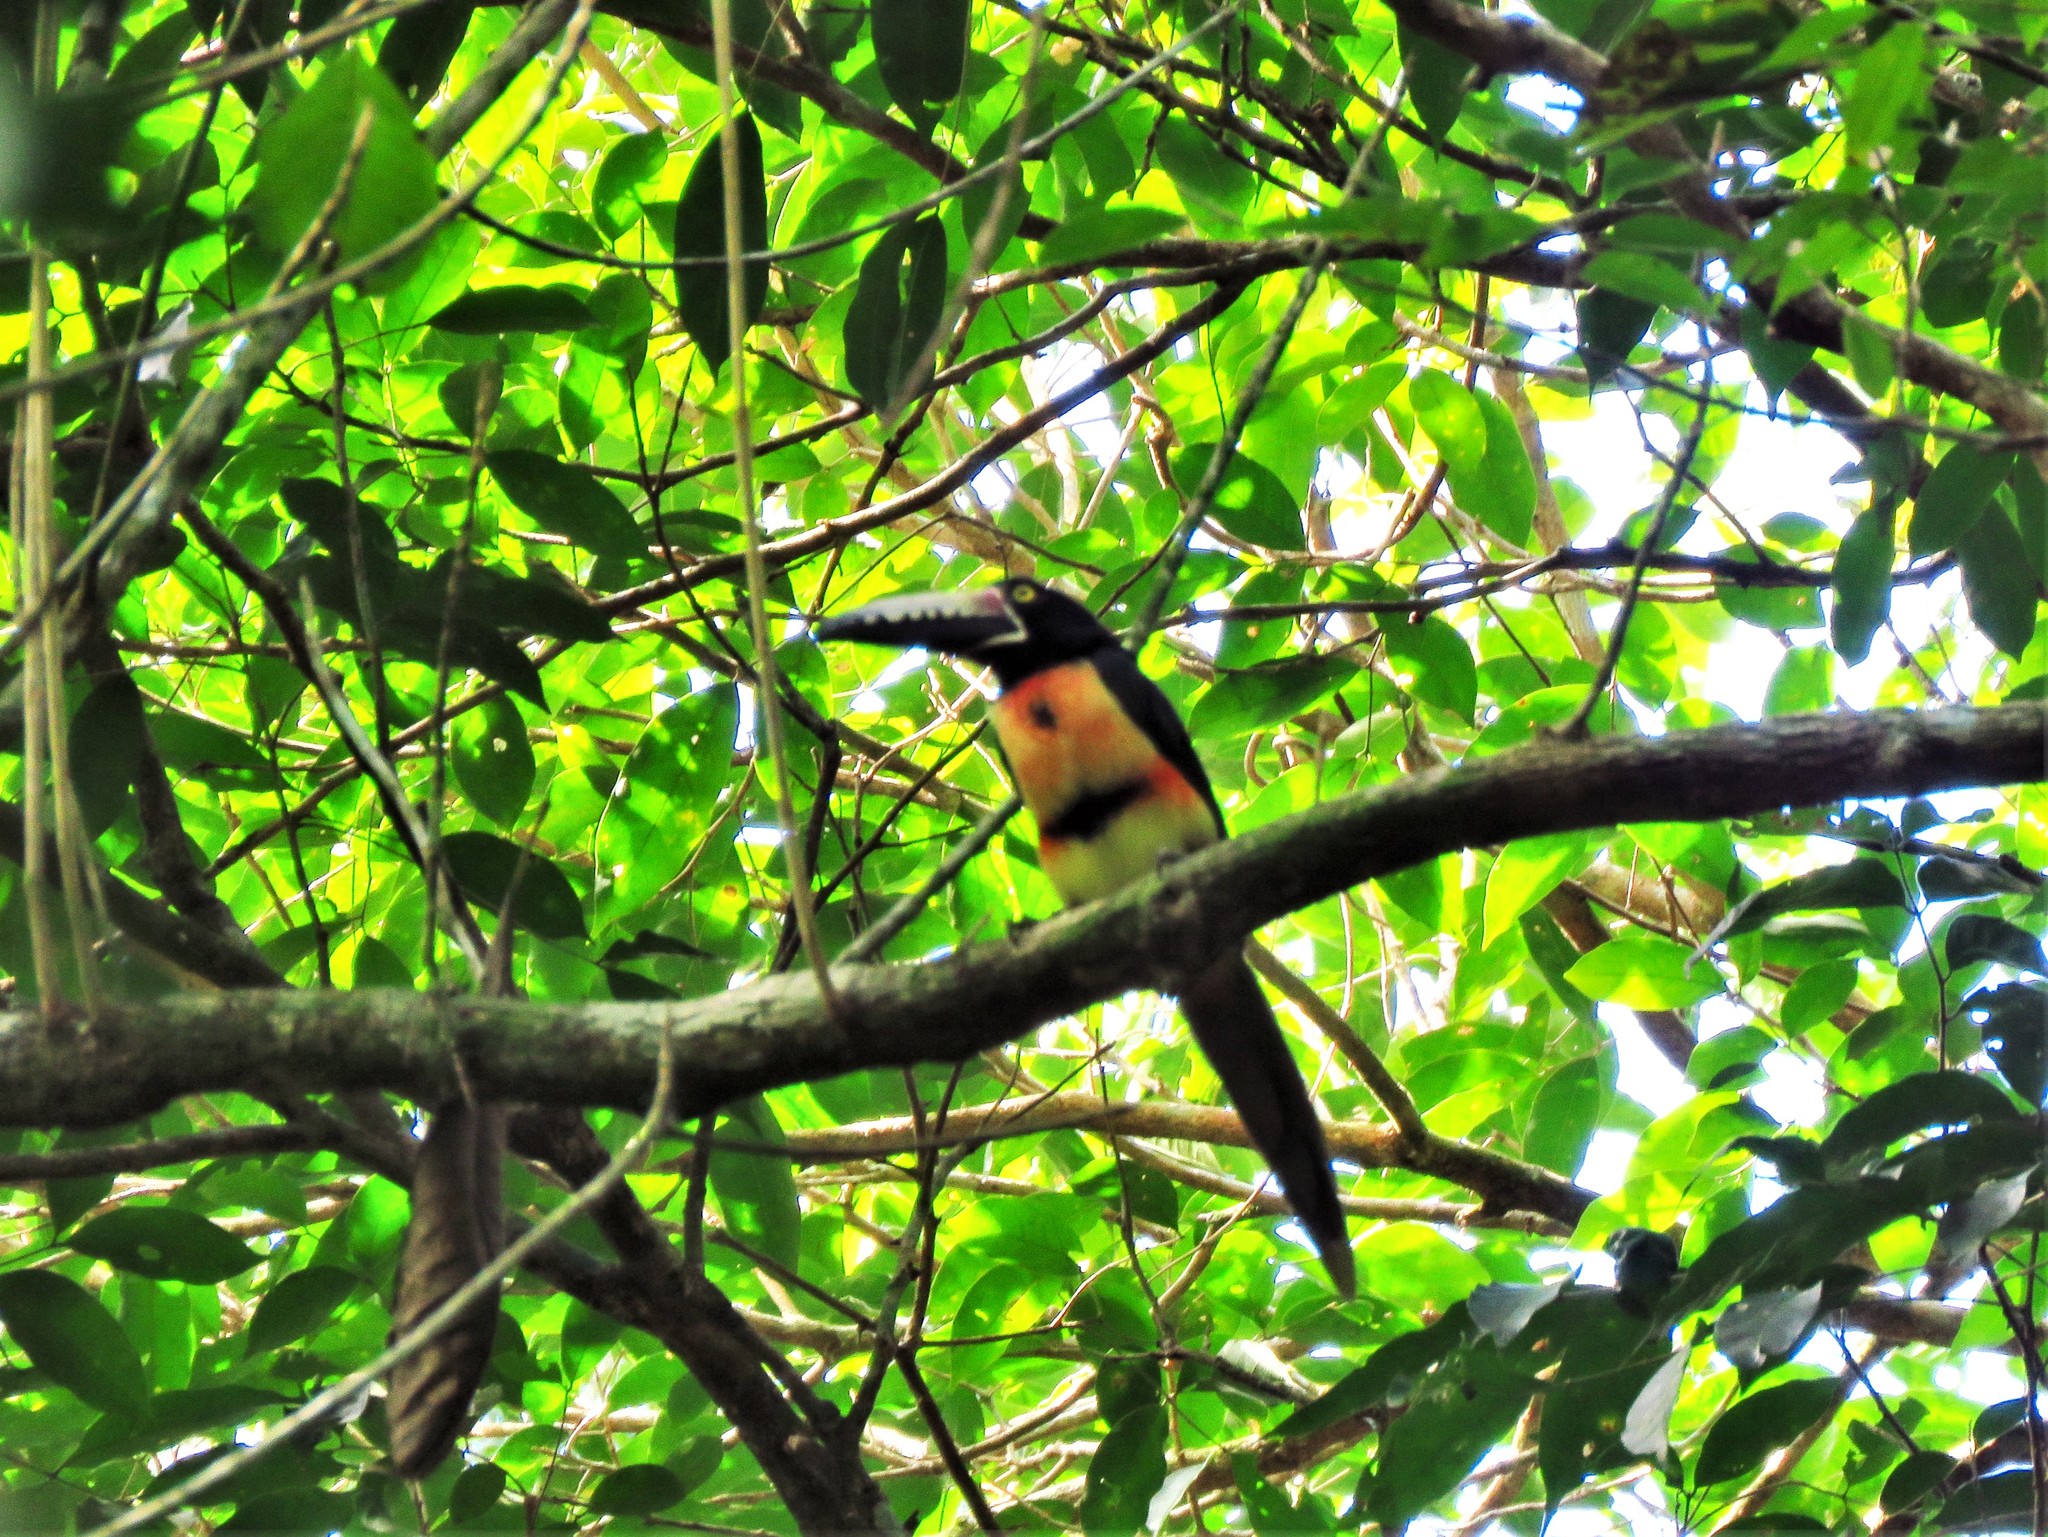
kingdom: Animalia
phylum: Chordata
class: Aves
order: Piciformes
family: Ramphastidae
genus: Pteroglossus
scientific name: Pteroglossus torquatus
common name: Collared aracari
